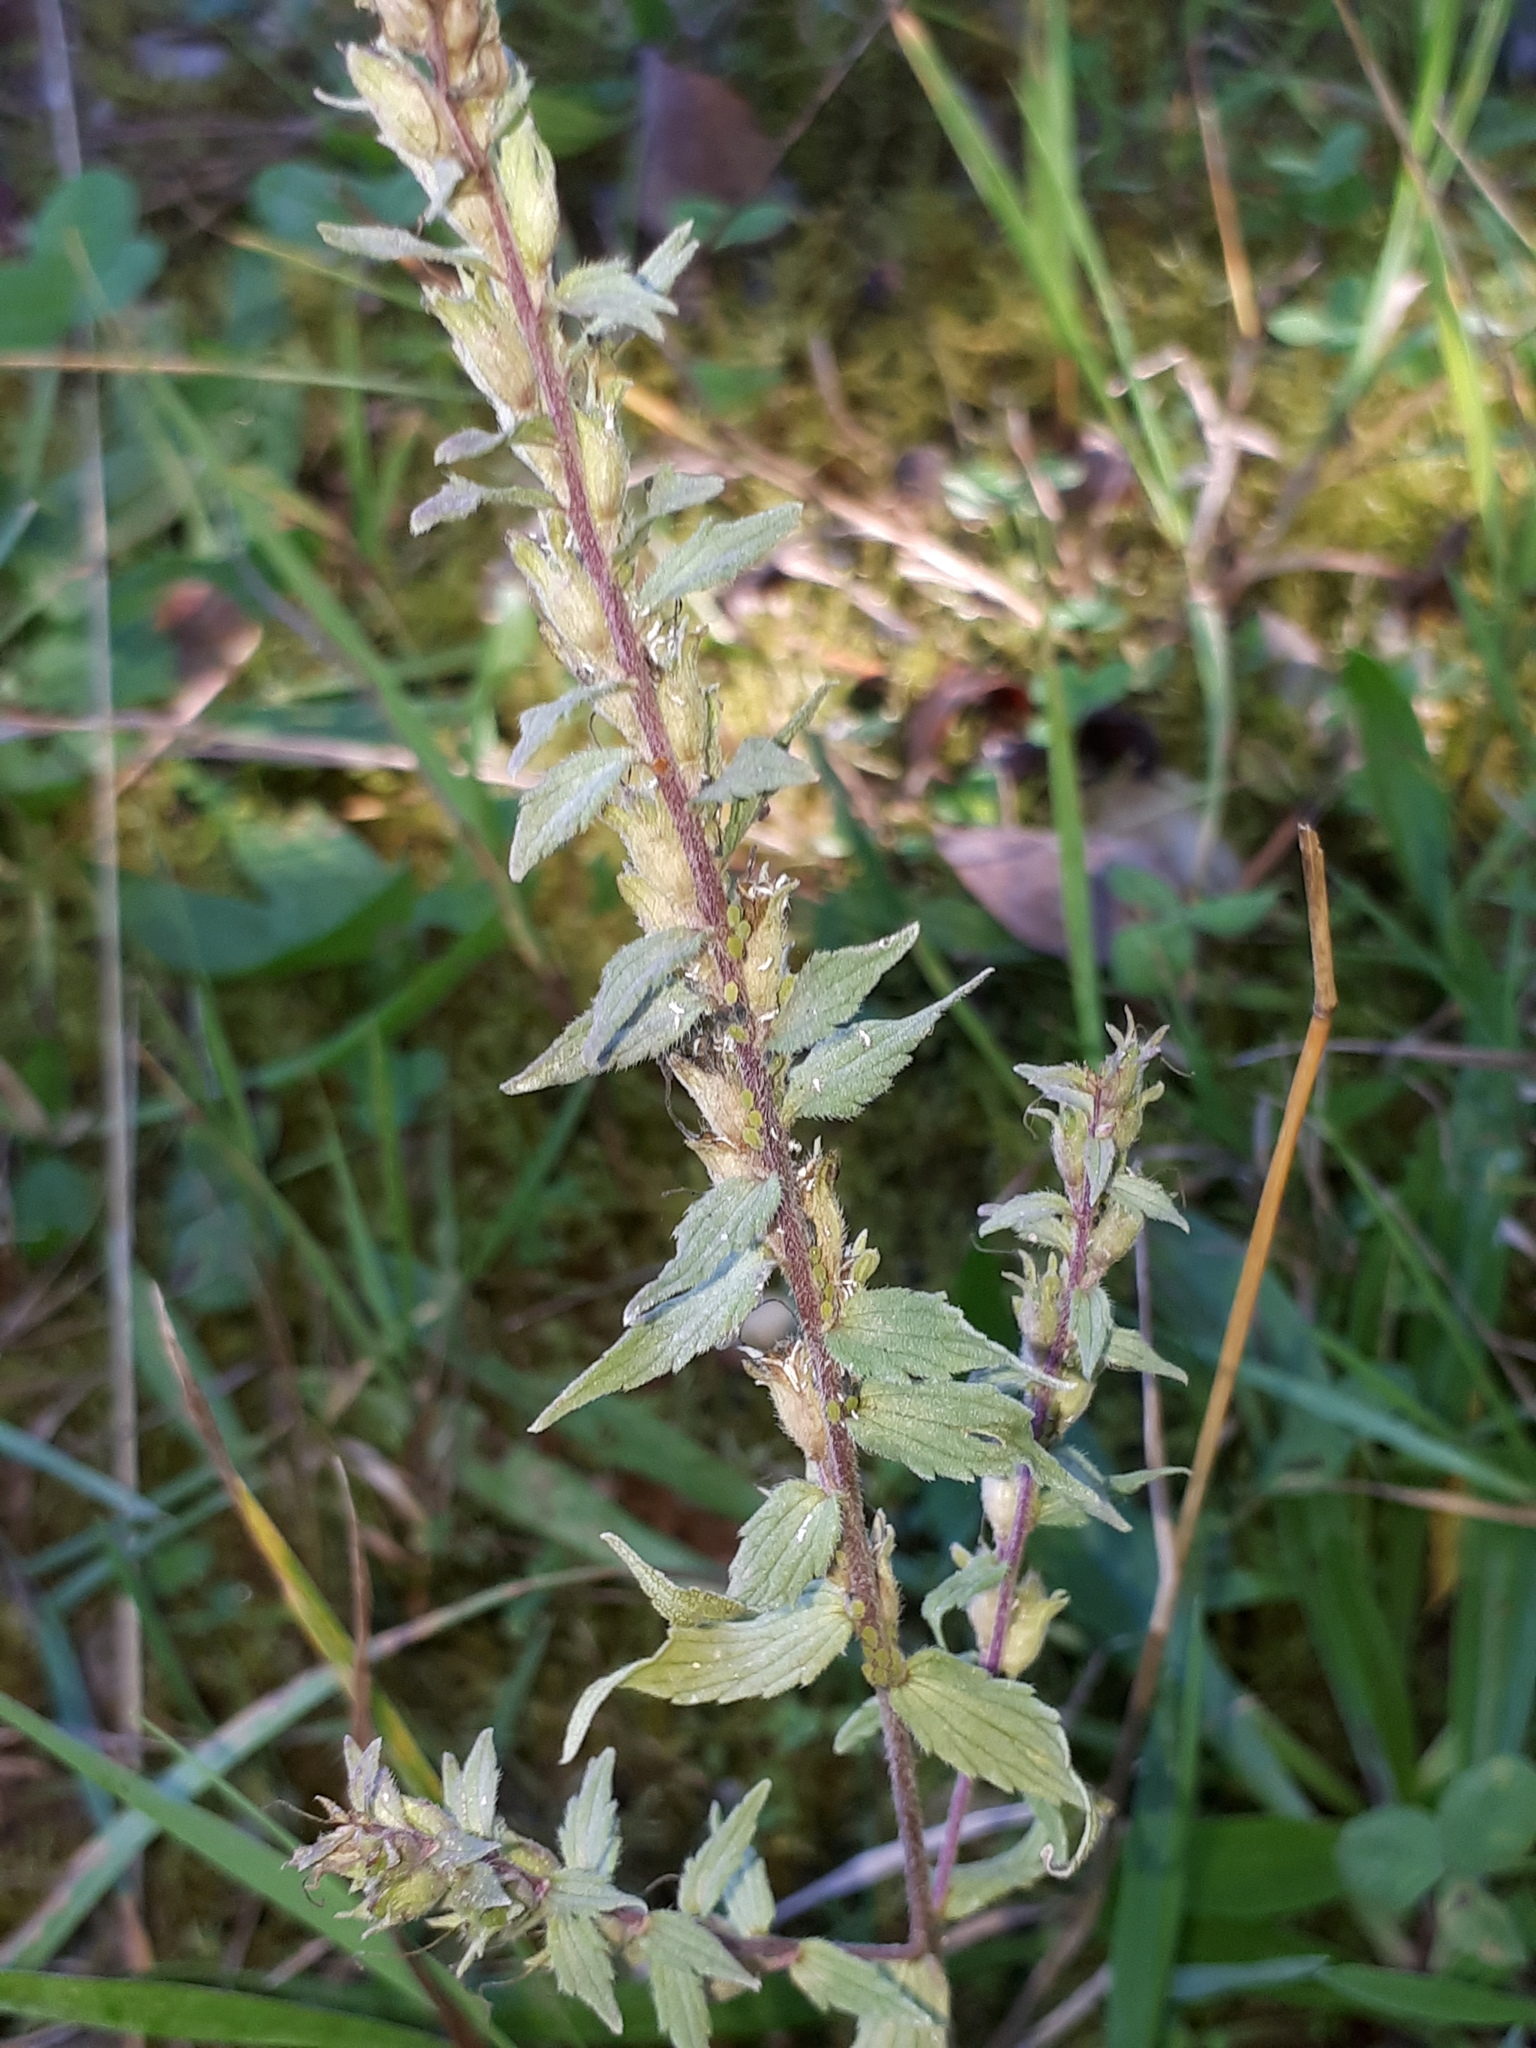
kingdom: Plantae
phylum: Tracheophyta
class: Magnoliopsida
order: Lamiales
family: Orobanchaceae
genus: Odontites
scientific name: Odontites vulgaris
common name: Broomrape
